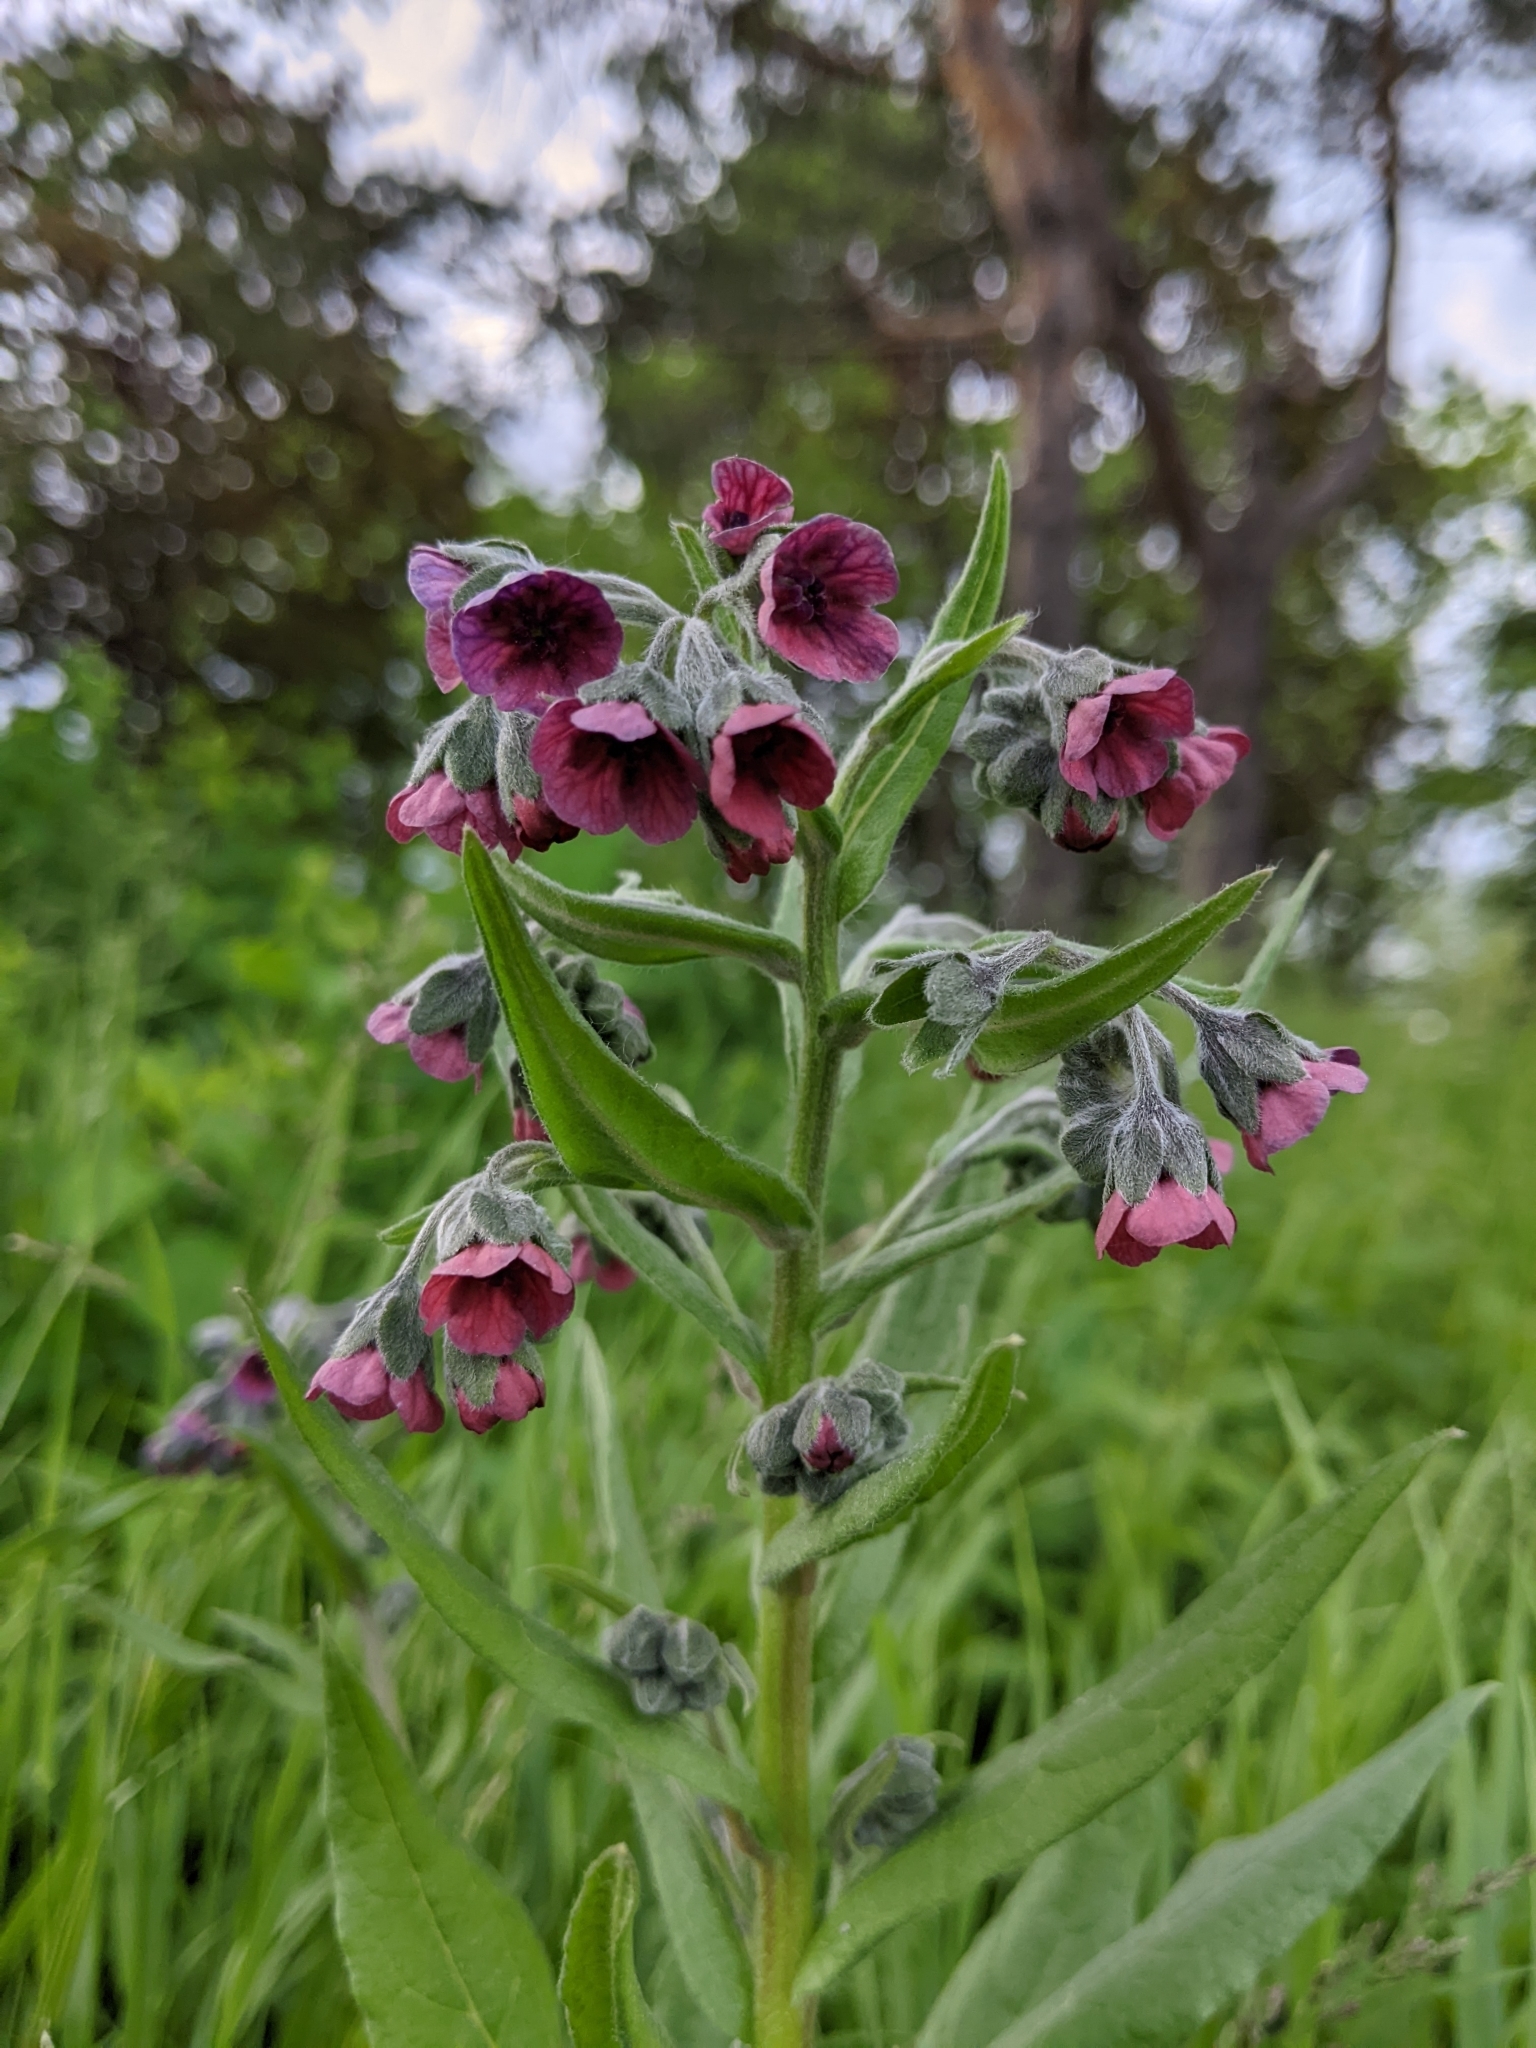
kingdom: Plantae
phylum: Tracheophyta
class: Magnoliopsida
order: Boraginales
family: Boraginaceae
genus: Cynoglossum
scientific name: Cynoglossum officinale
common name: Hound's-tongue
